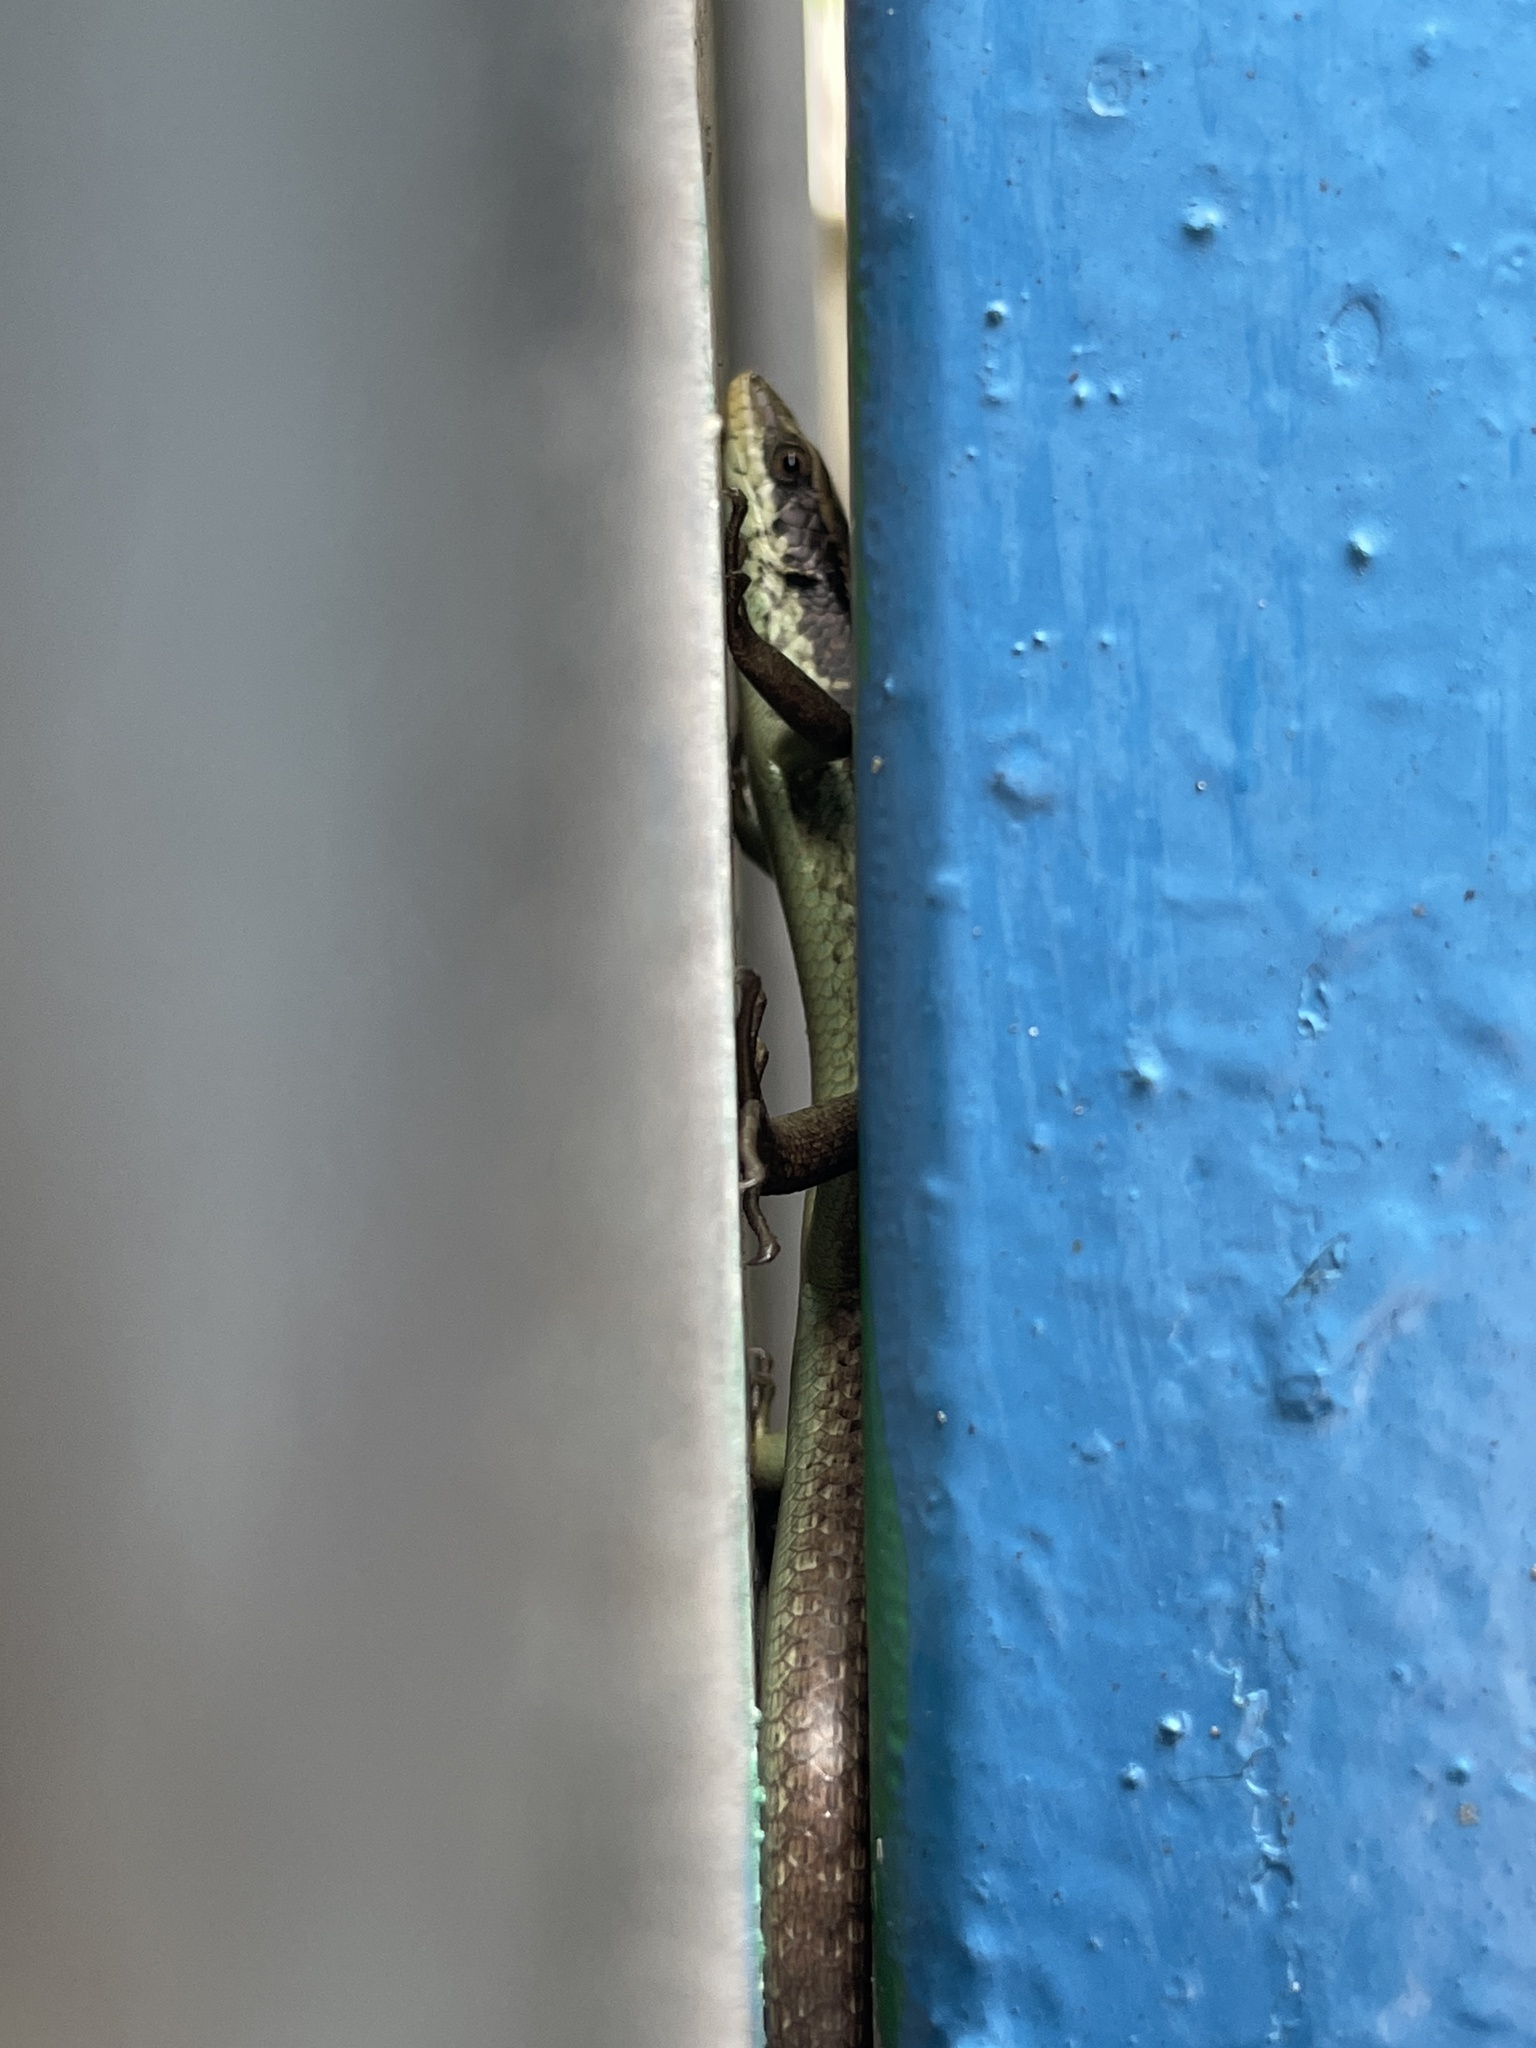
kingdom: Animalia
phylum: Chordata
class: Squamata
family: Scincidae
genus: Eutropis
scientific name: Eutropis longicaudata
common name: Long-tailed sun skink
